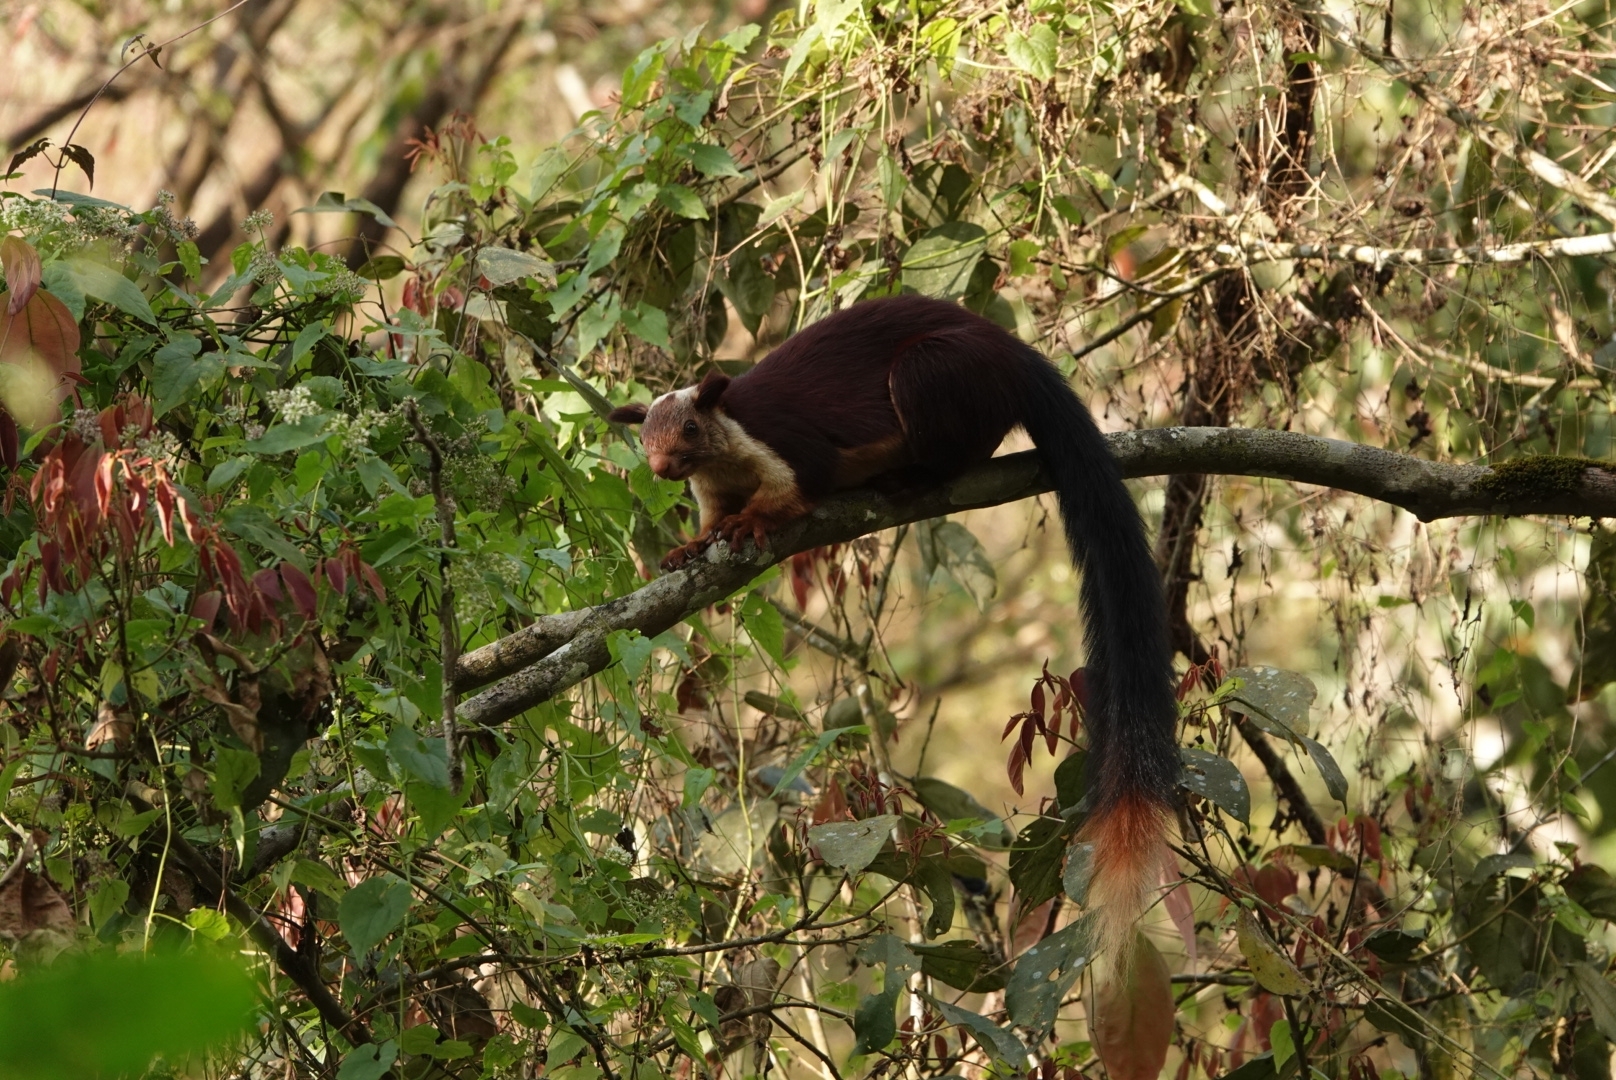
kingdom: Animalia
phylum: Chordata
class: Mammalia
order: Rodentia
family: Sciuridae
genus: Ratufa
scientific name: Ratufa indica
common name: Indian giant squirrel
